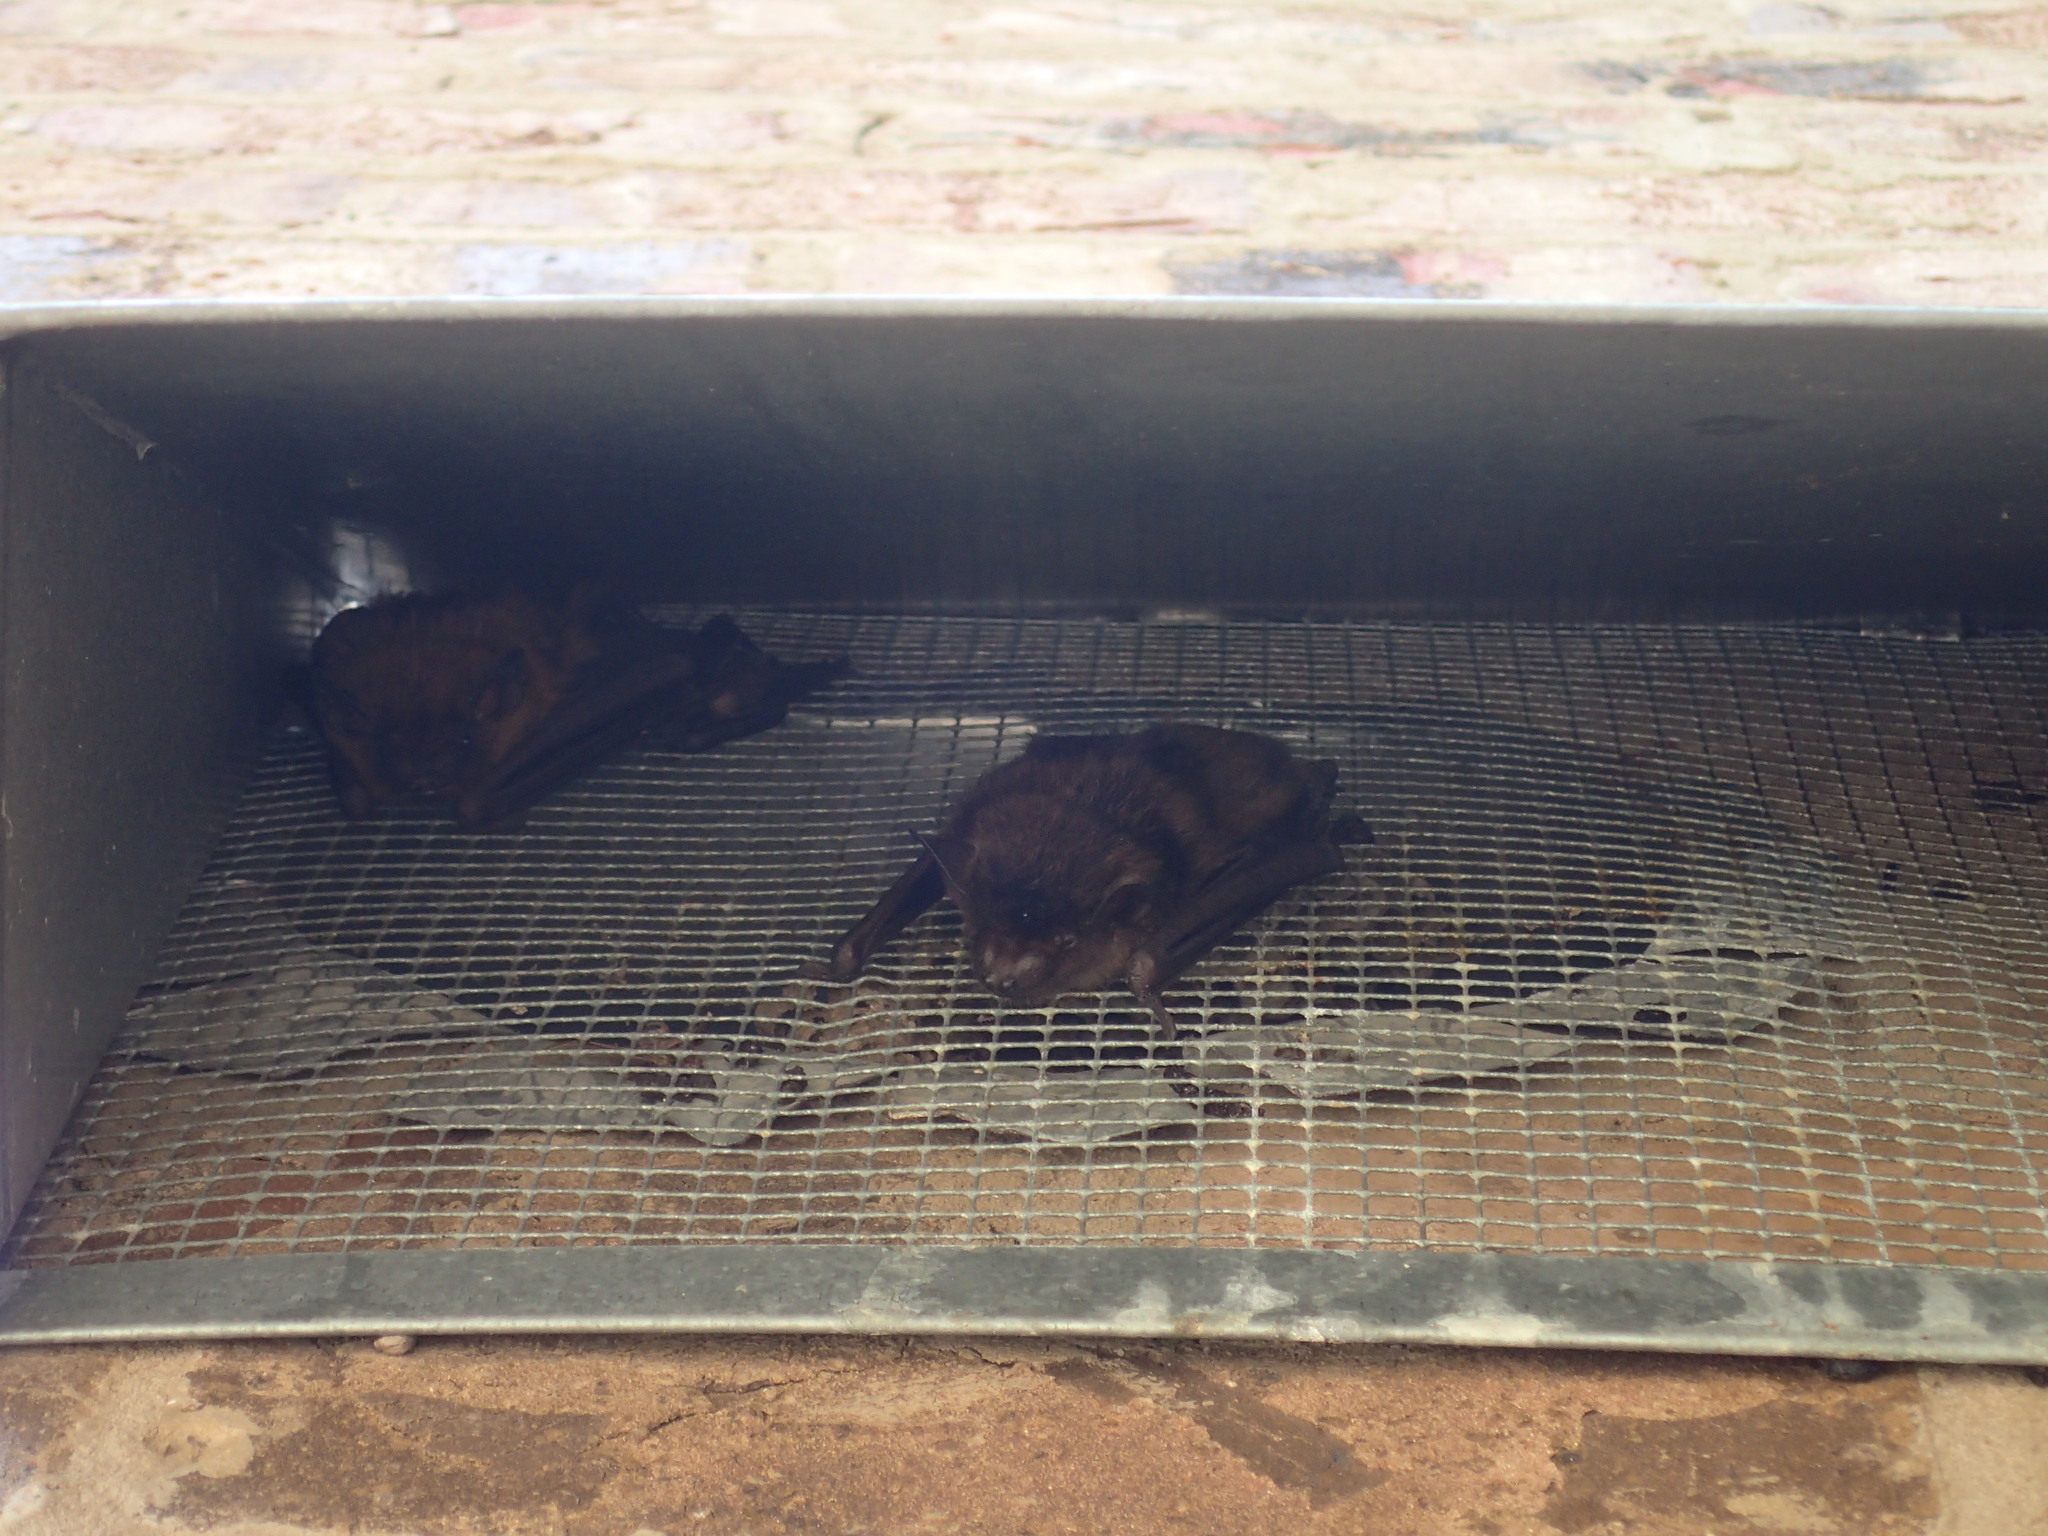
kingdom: Animalia
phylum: Chordata
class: Mammalia
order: Chiroptera
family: Vespertilionidae
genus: Eptesicus
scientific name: Eptesicus fuscus
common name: Big brown bat
